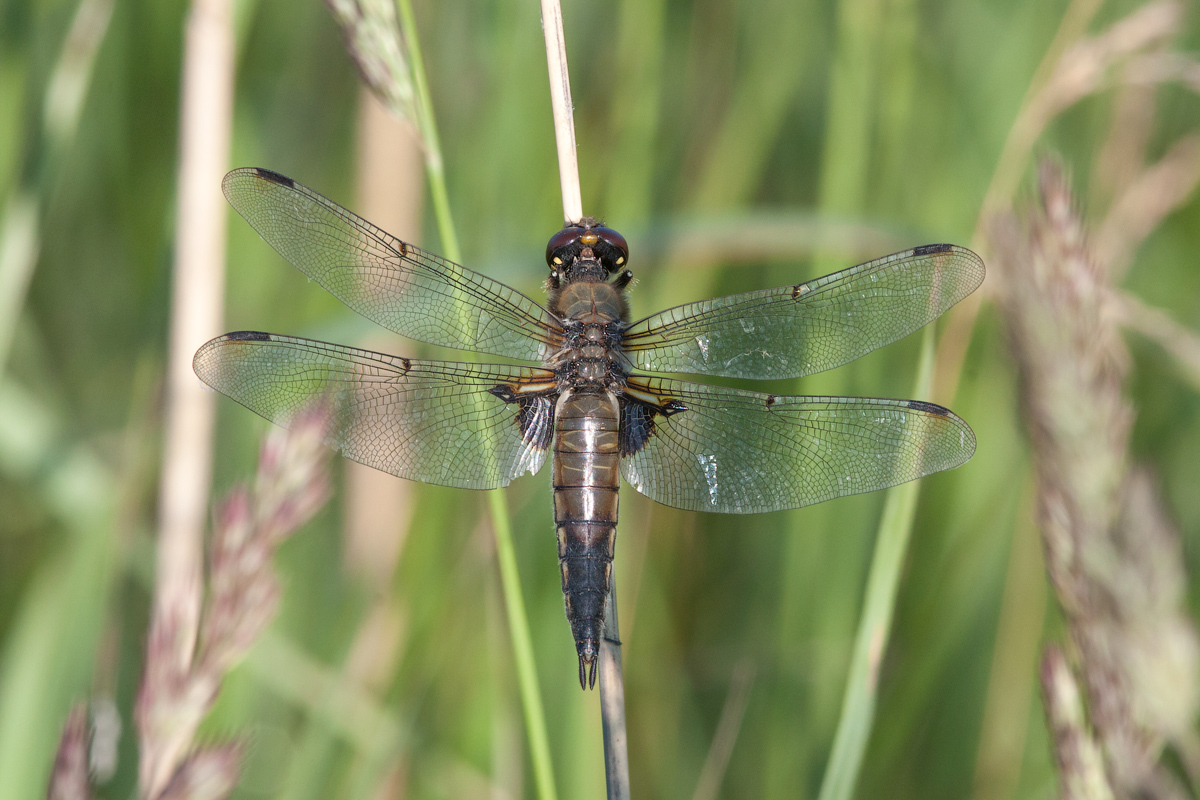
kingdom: Animalia
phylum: Arthropoda
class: Insecta
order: Odonata
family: Libellulidae
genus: Libellula
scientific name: Libellula quadrimaculata
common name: Four-spotted chaser
